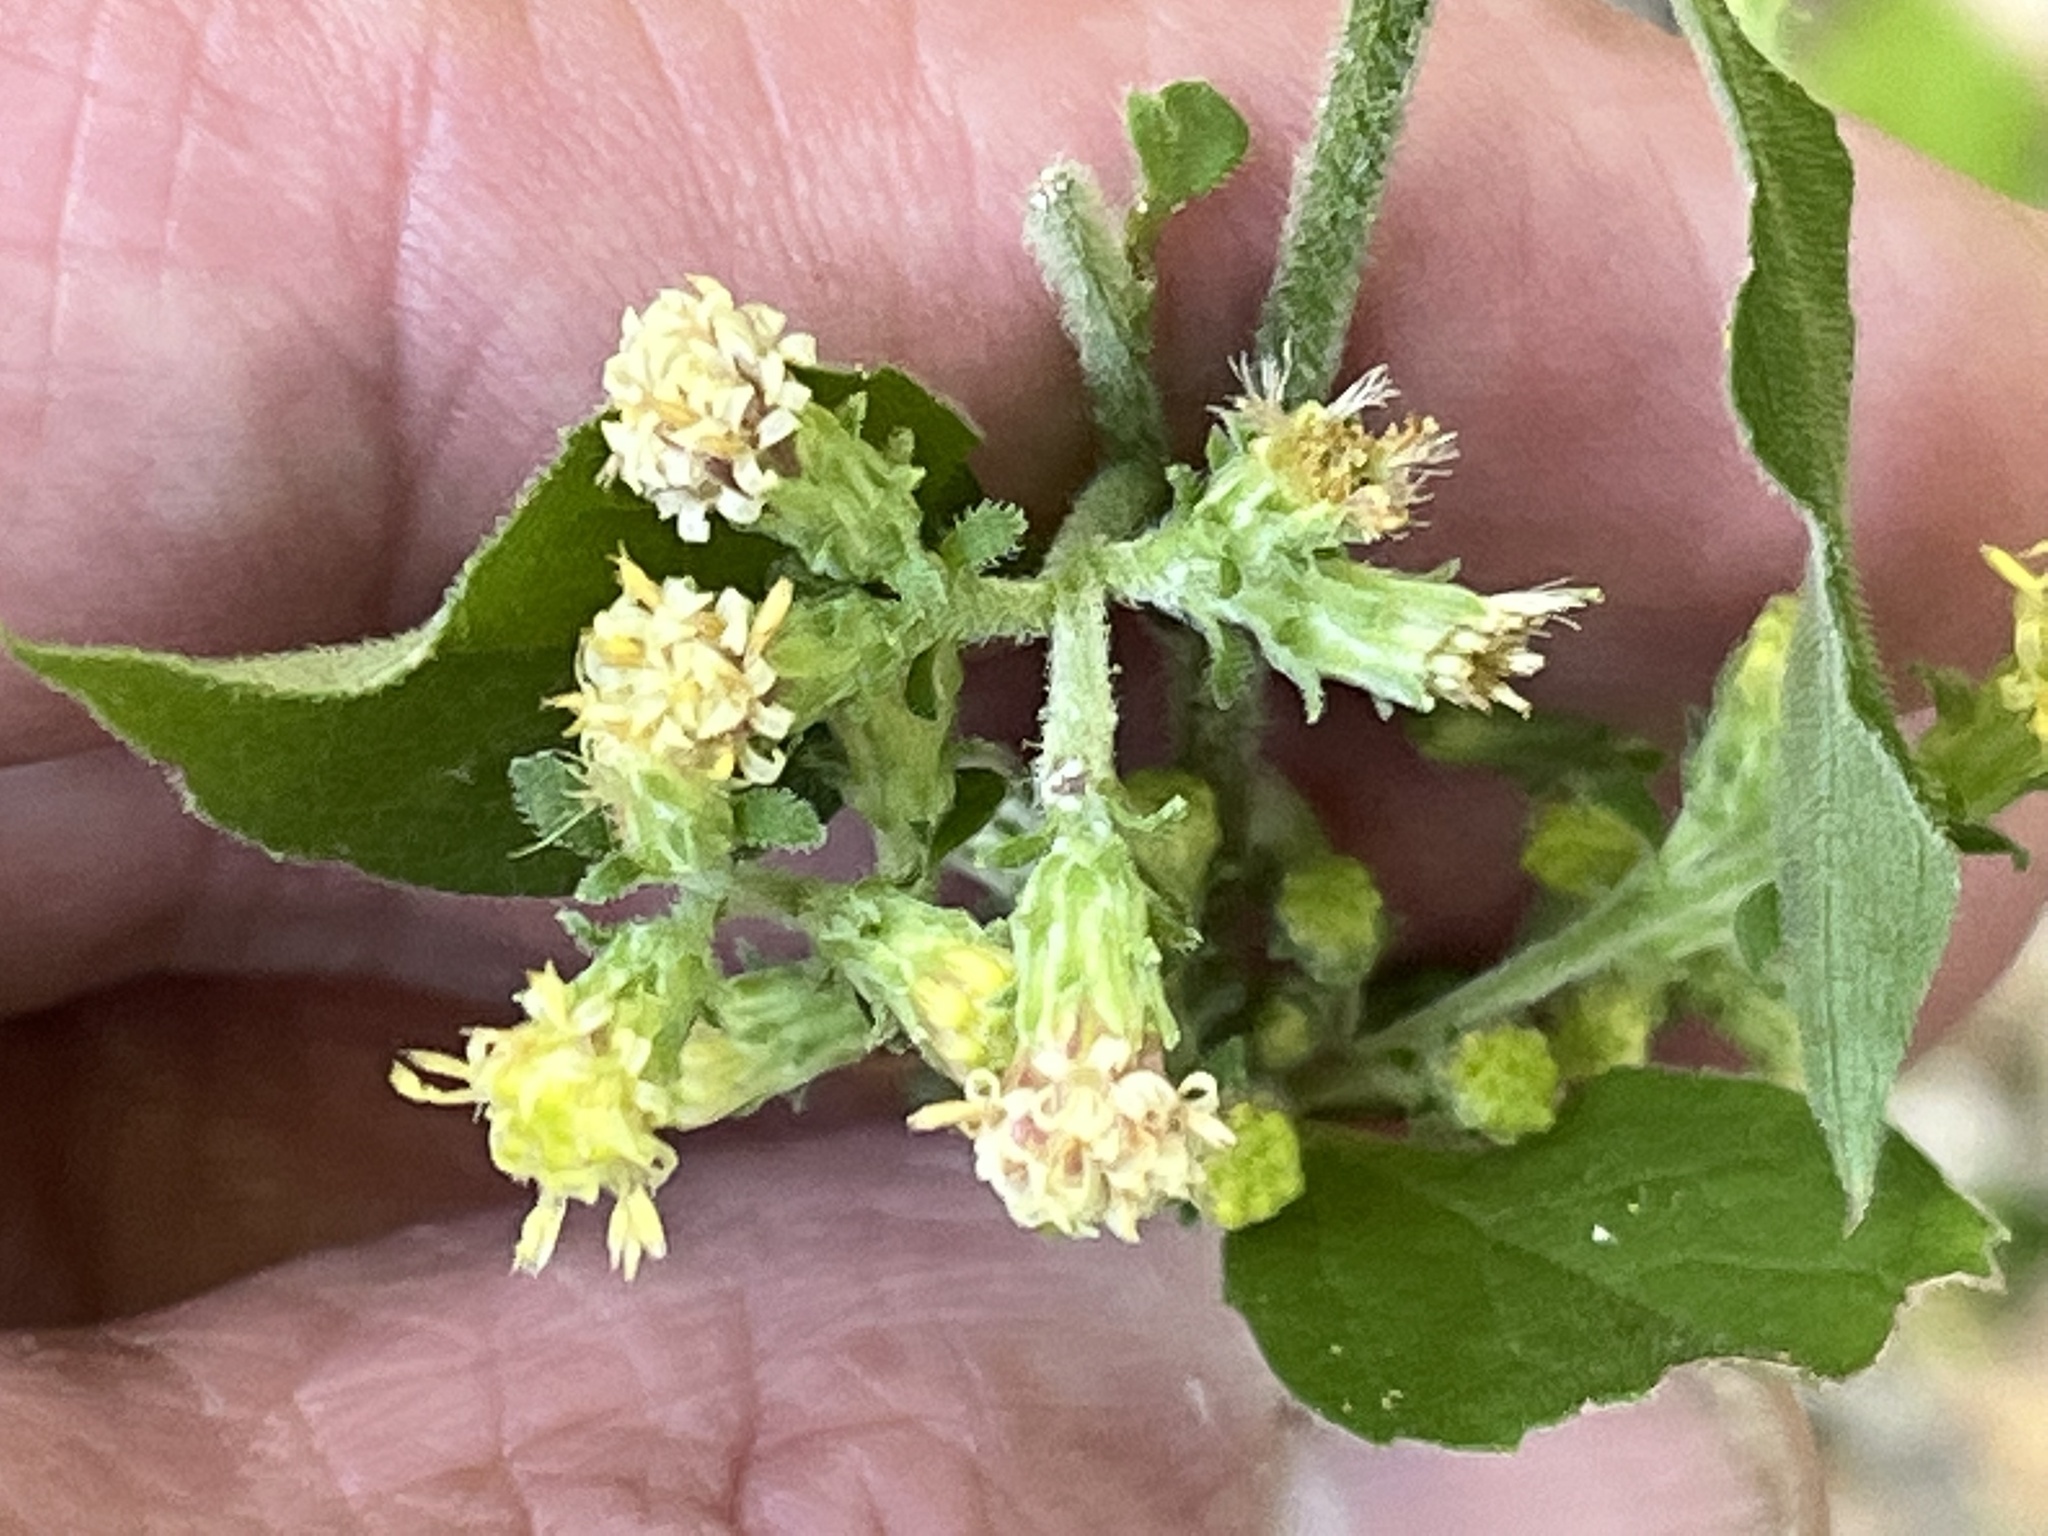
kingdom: Plantae
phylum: Tracheophyta
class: Magnoliopsida
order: Asterales
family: Asteraceae
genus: Solidago
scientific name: Solidago discoidea
